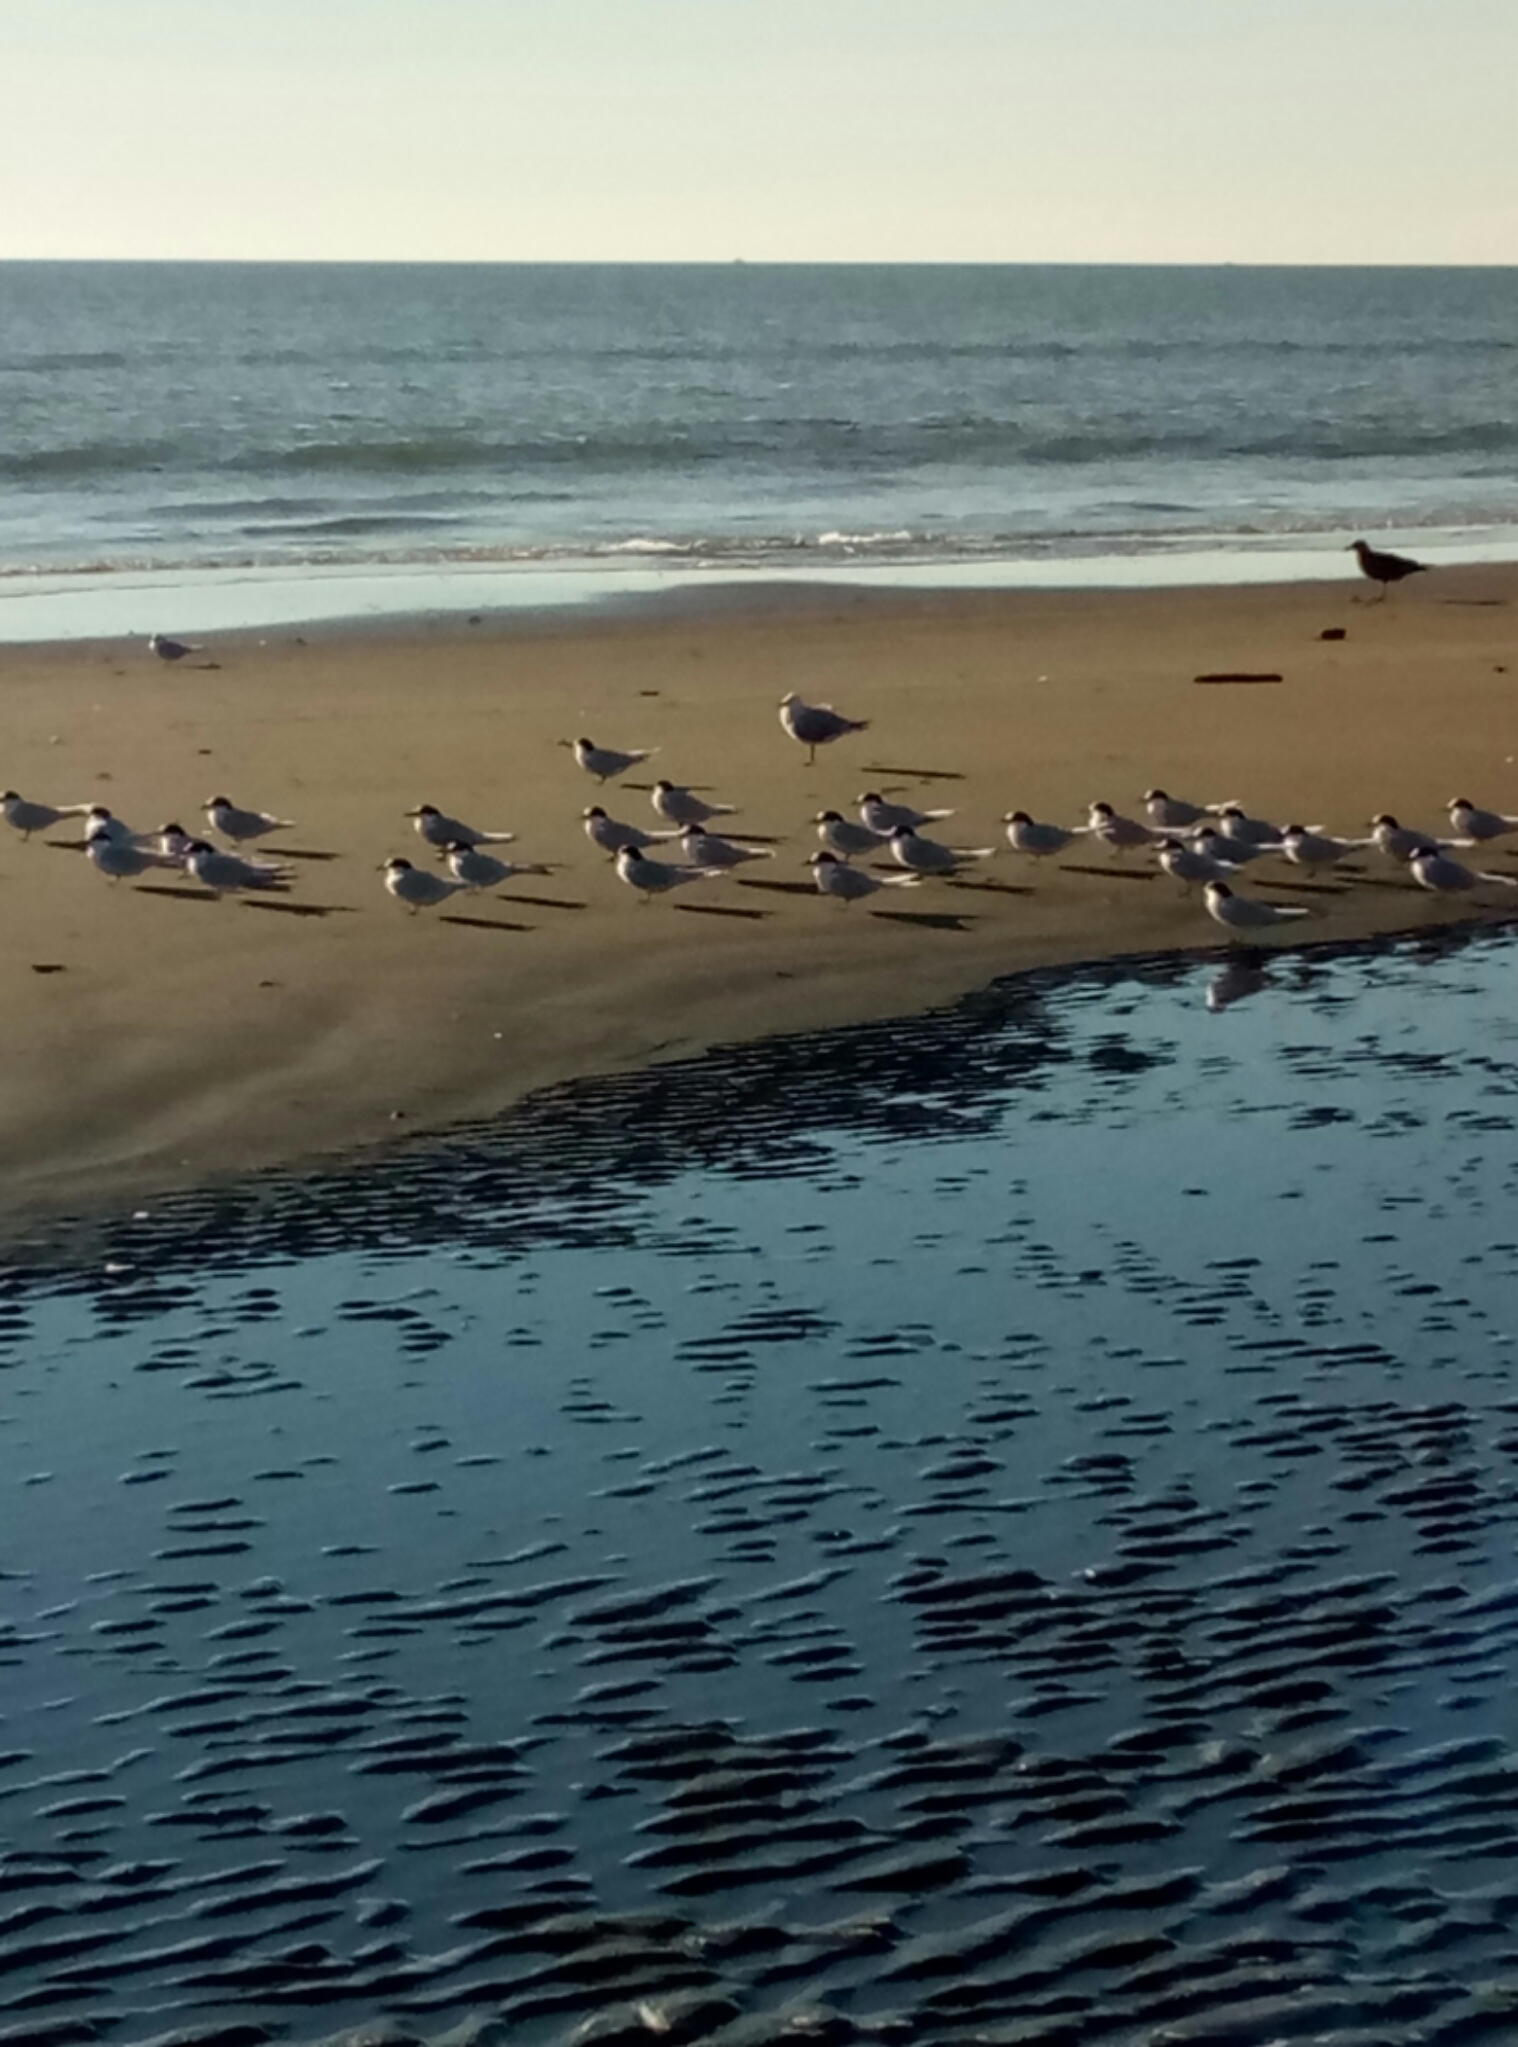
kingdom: Animalia
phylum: Chordata
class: Aves
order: Charadriiformes
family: Laridae
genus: Sterna
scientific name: Sterna striata
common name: White-fronted tern
